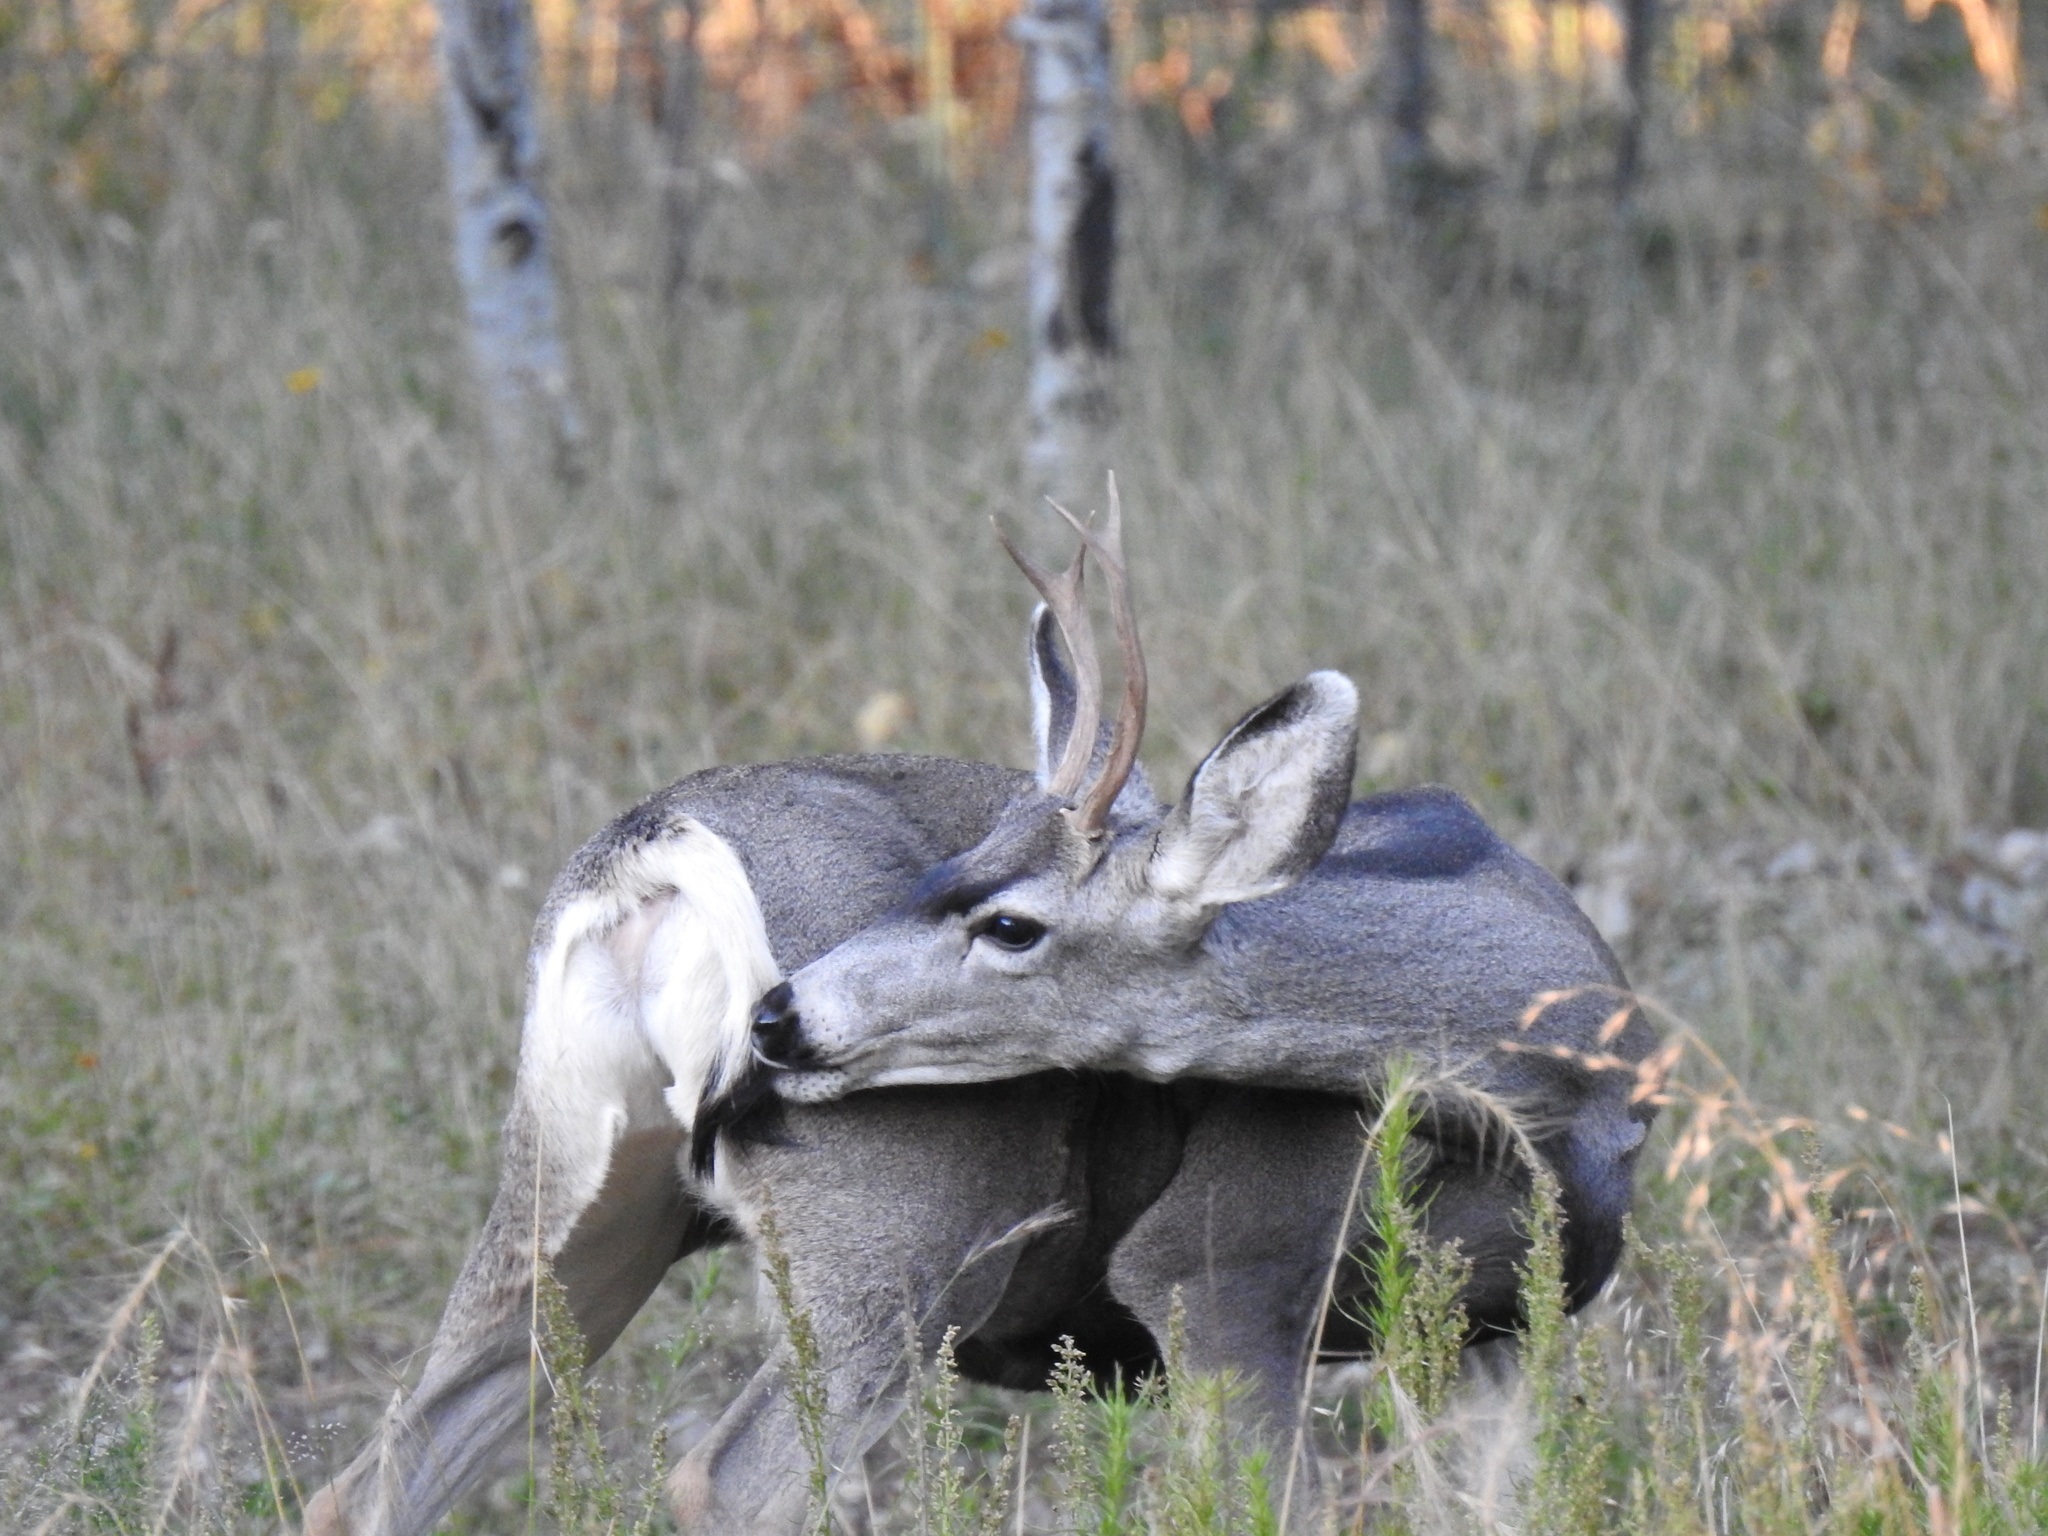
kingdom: Animalia
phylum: Chordata
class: Mammalia
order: Artiodactyla
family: Cervidae
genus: Odocoileus
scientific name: Odocoileus hemionus
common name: Mule deer
